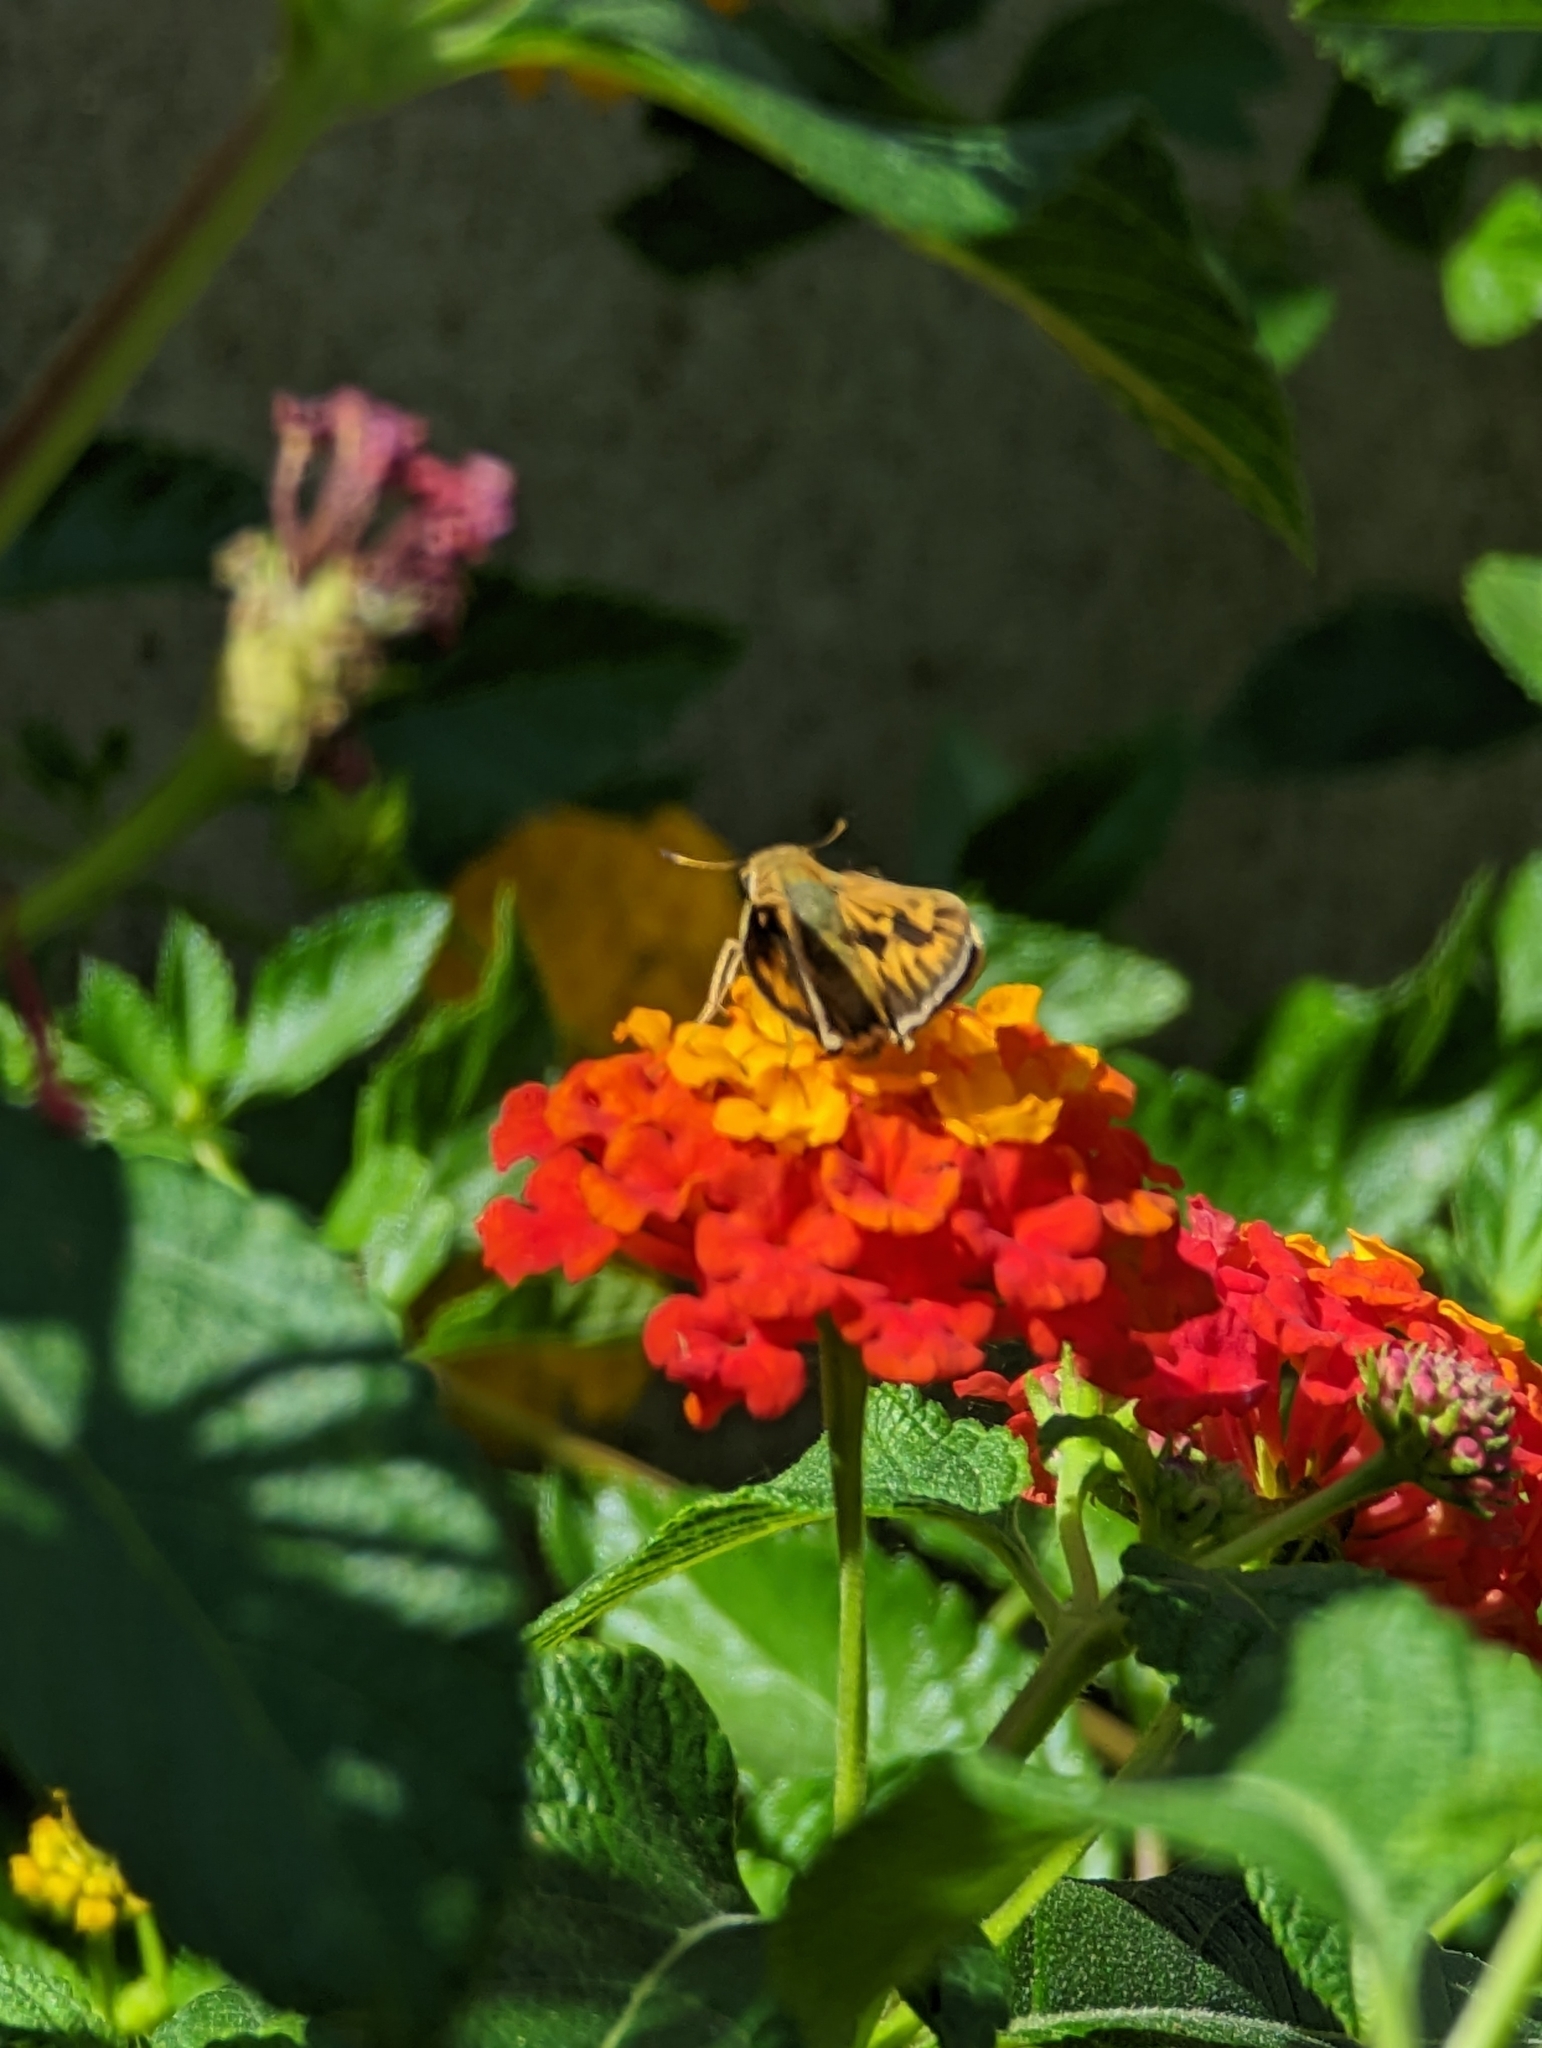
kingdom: Animalia
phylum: Arthropoda
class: Insecta
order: Lepidoptera
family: Hesperiidae
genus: Hylephila
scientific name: Hylephila phyleus
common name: Fiery skipper
